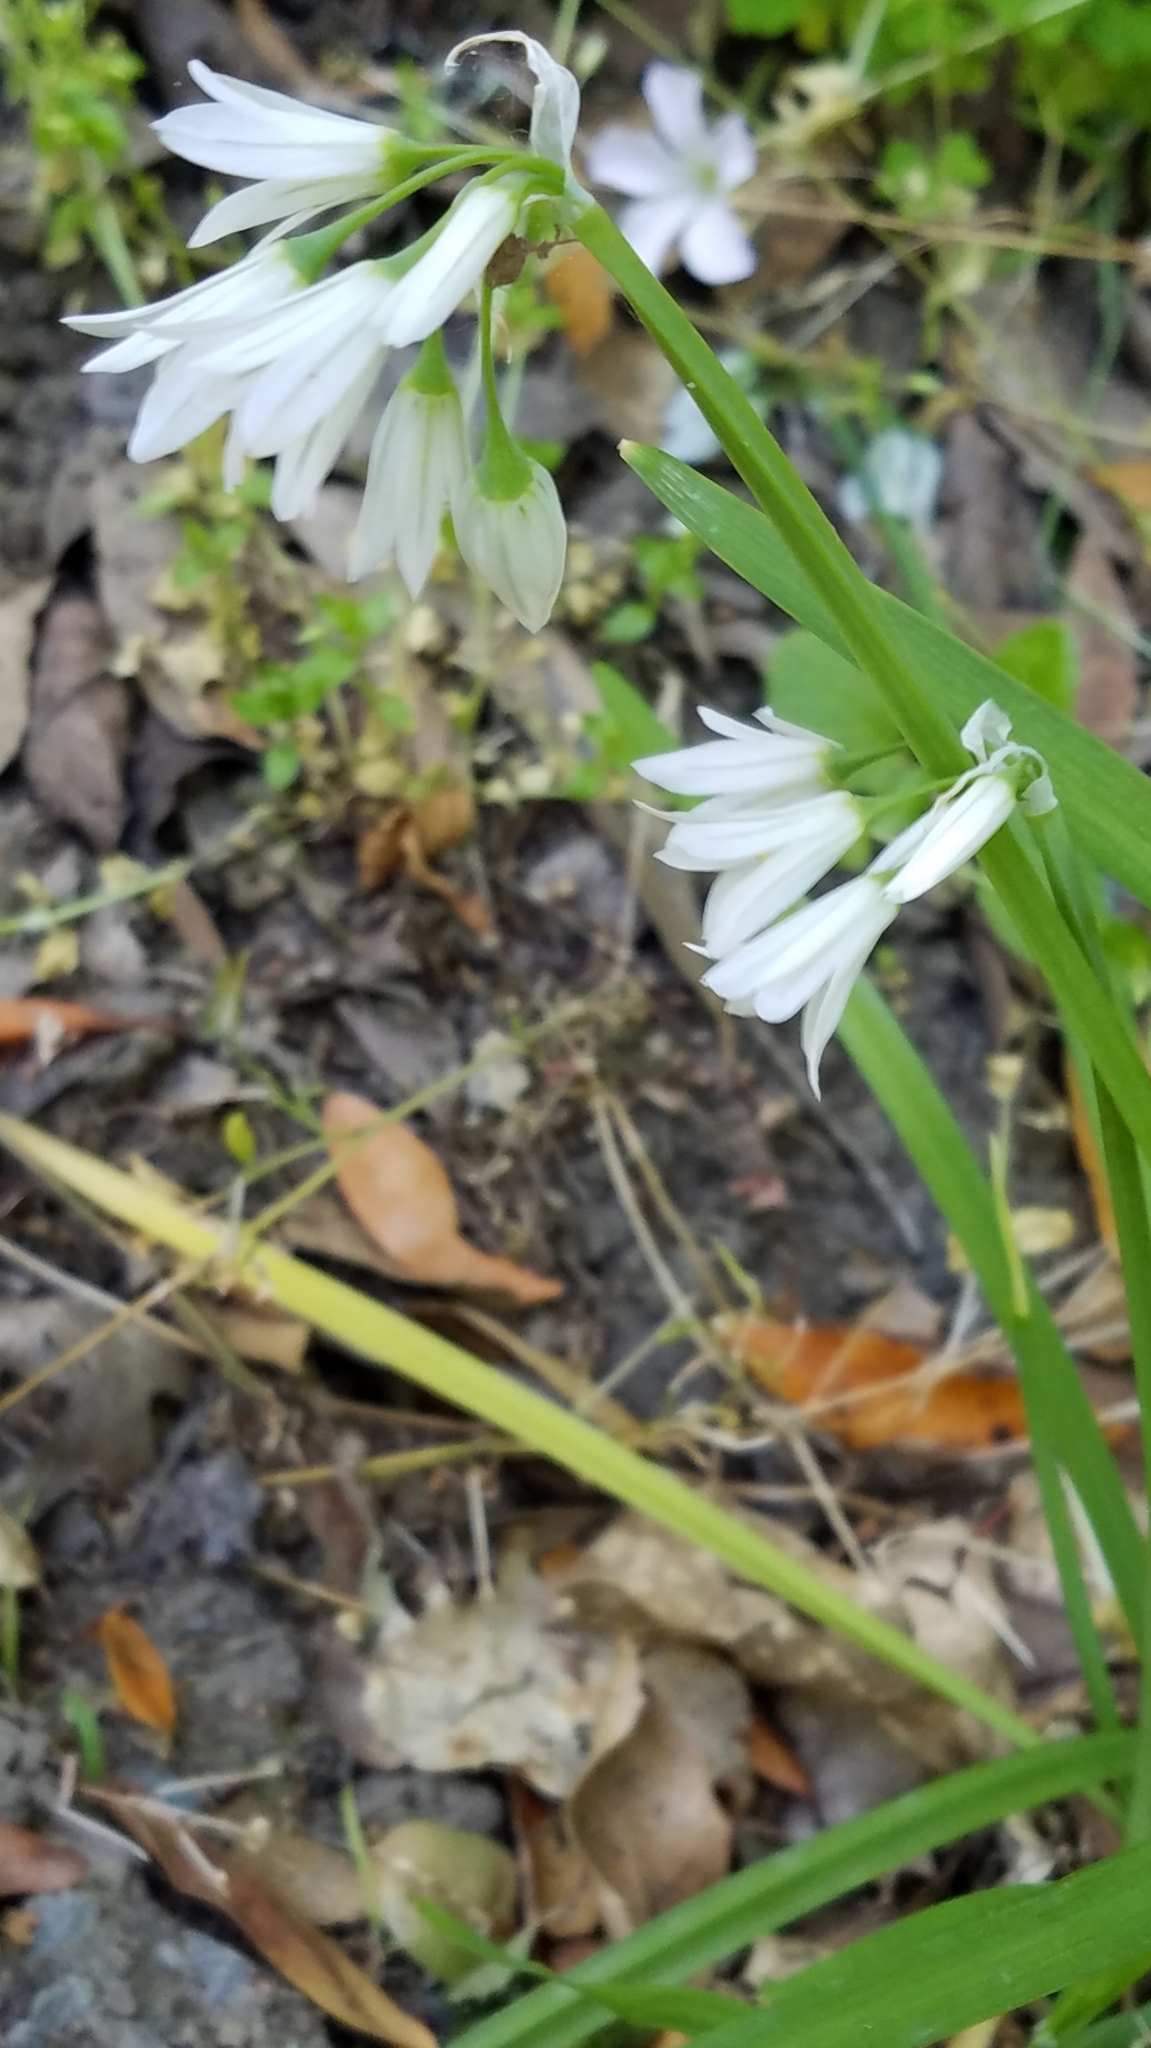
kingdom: Plantae
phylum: Tracheophyta
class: Liliopsida
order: Asparagales
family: Amaryllidaceae
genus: Allium
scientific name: Allium triquetrum
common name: Three-cornered garlic
